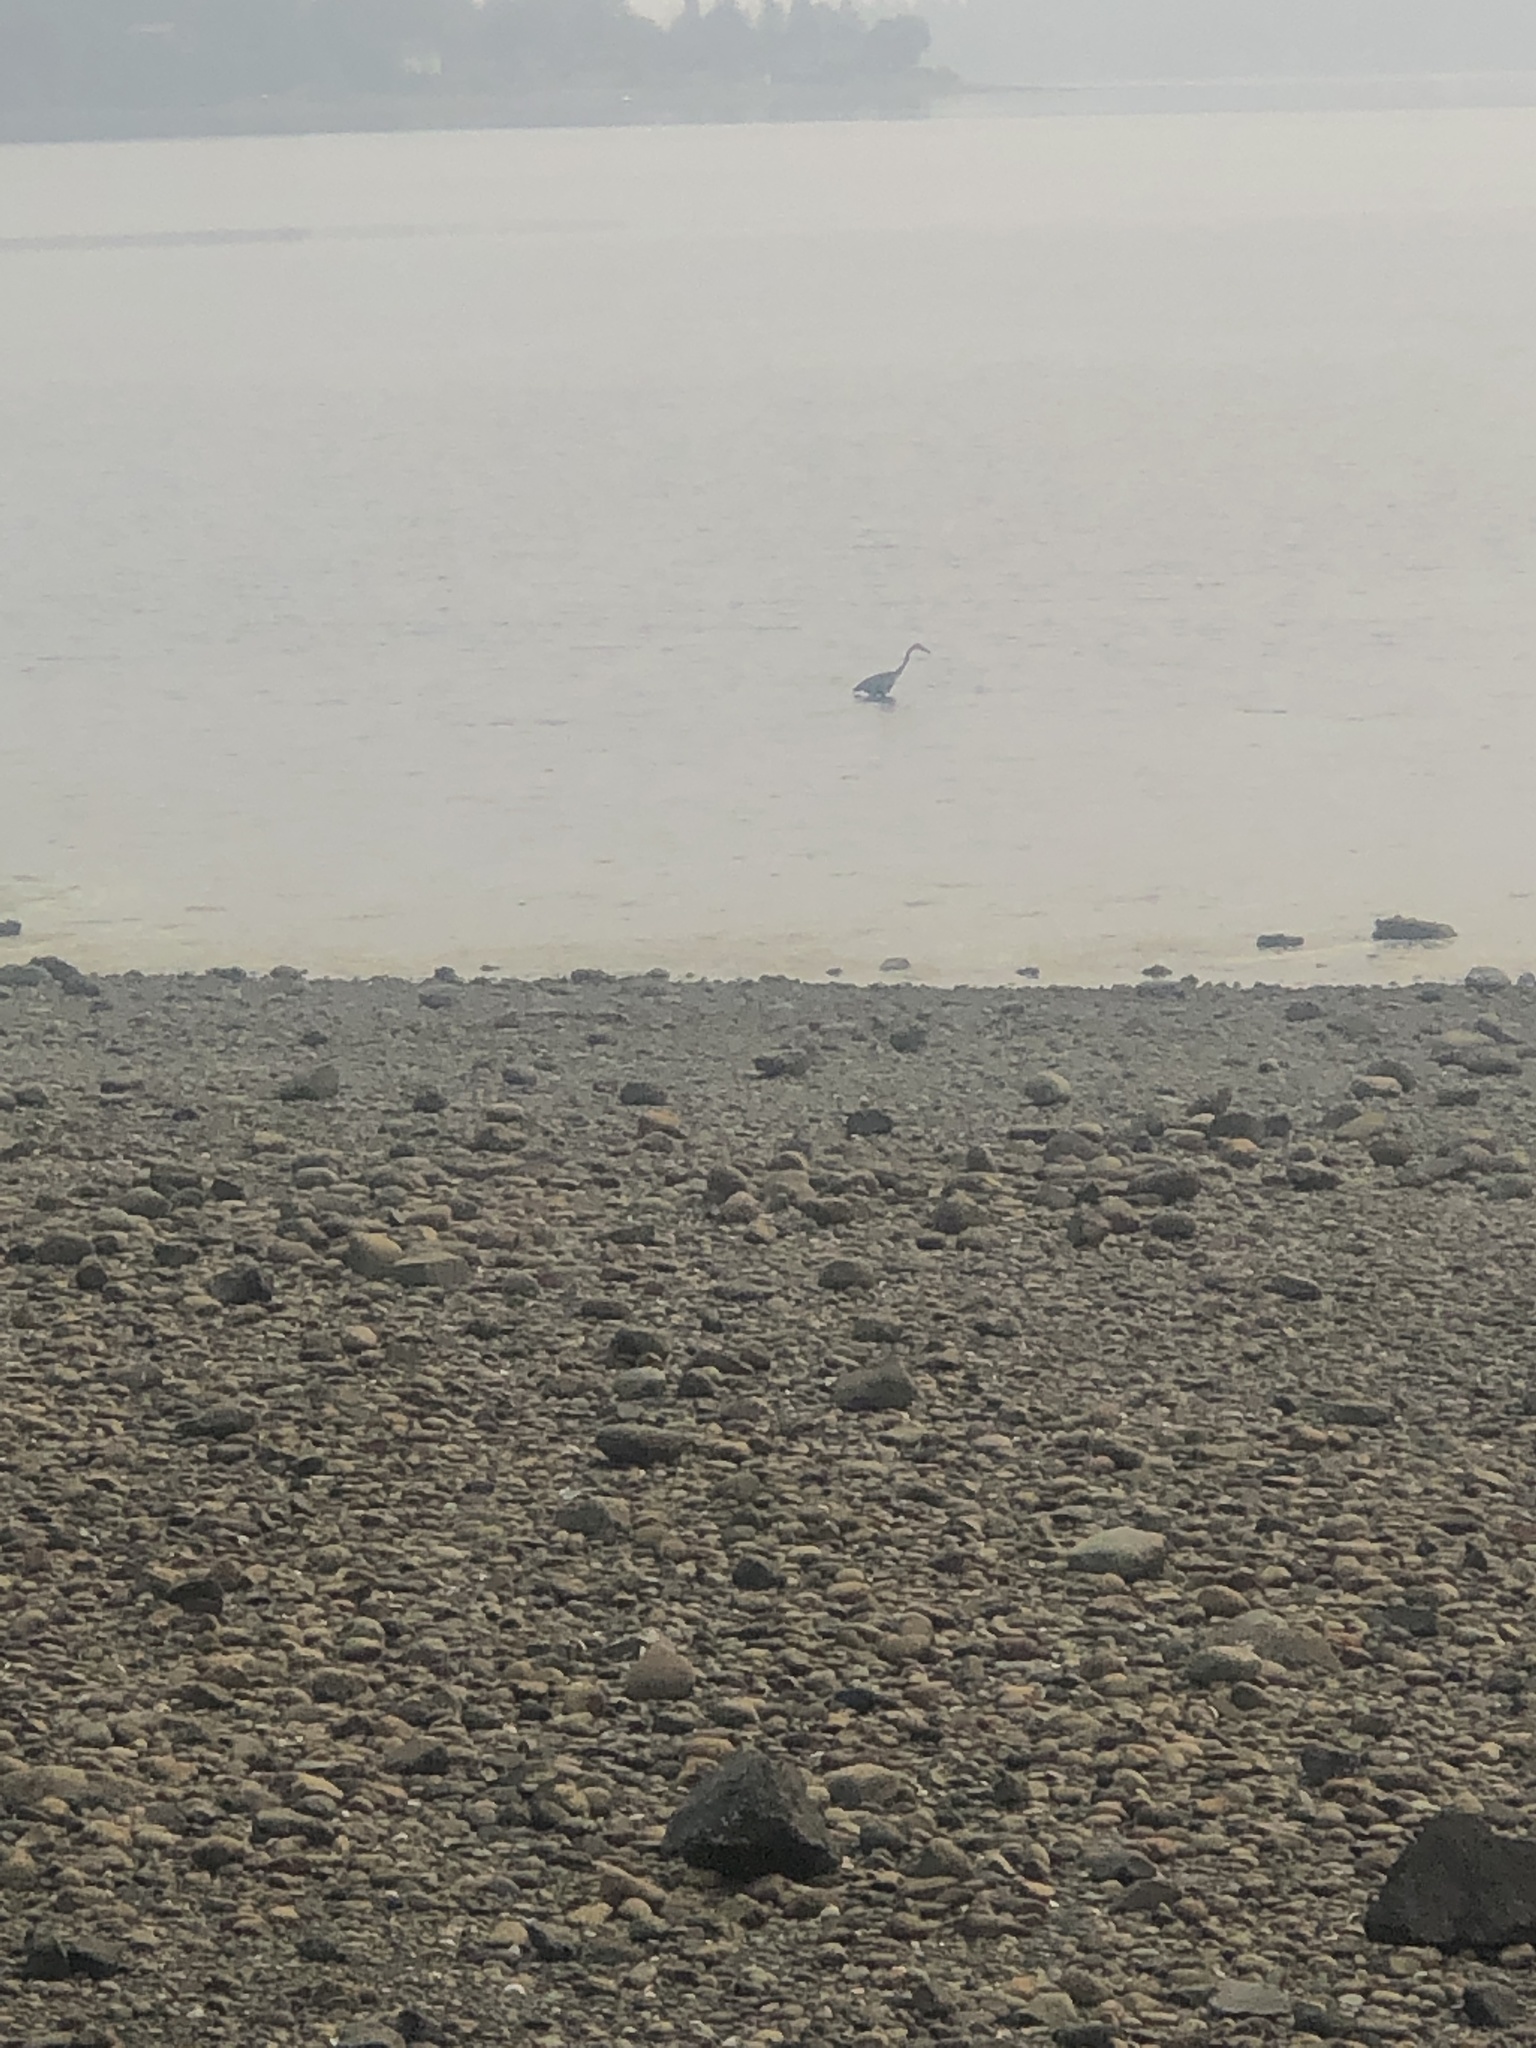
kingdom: Animalia
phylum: Chordata
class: Aves
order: Pelecaniformes
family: Ardeidae
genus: Ardea
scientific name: Ardea herodias
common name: Great blue heron
